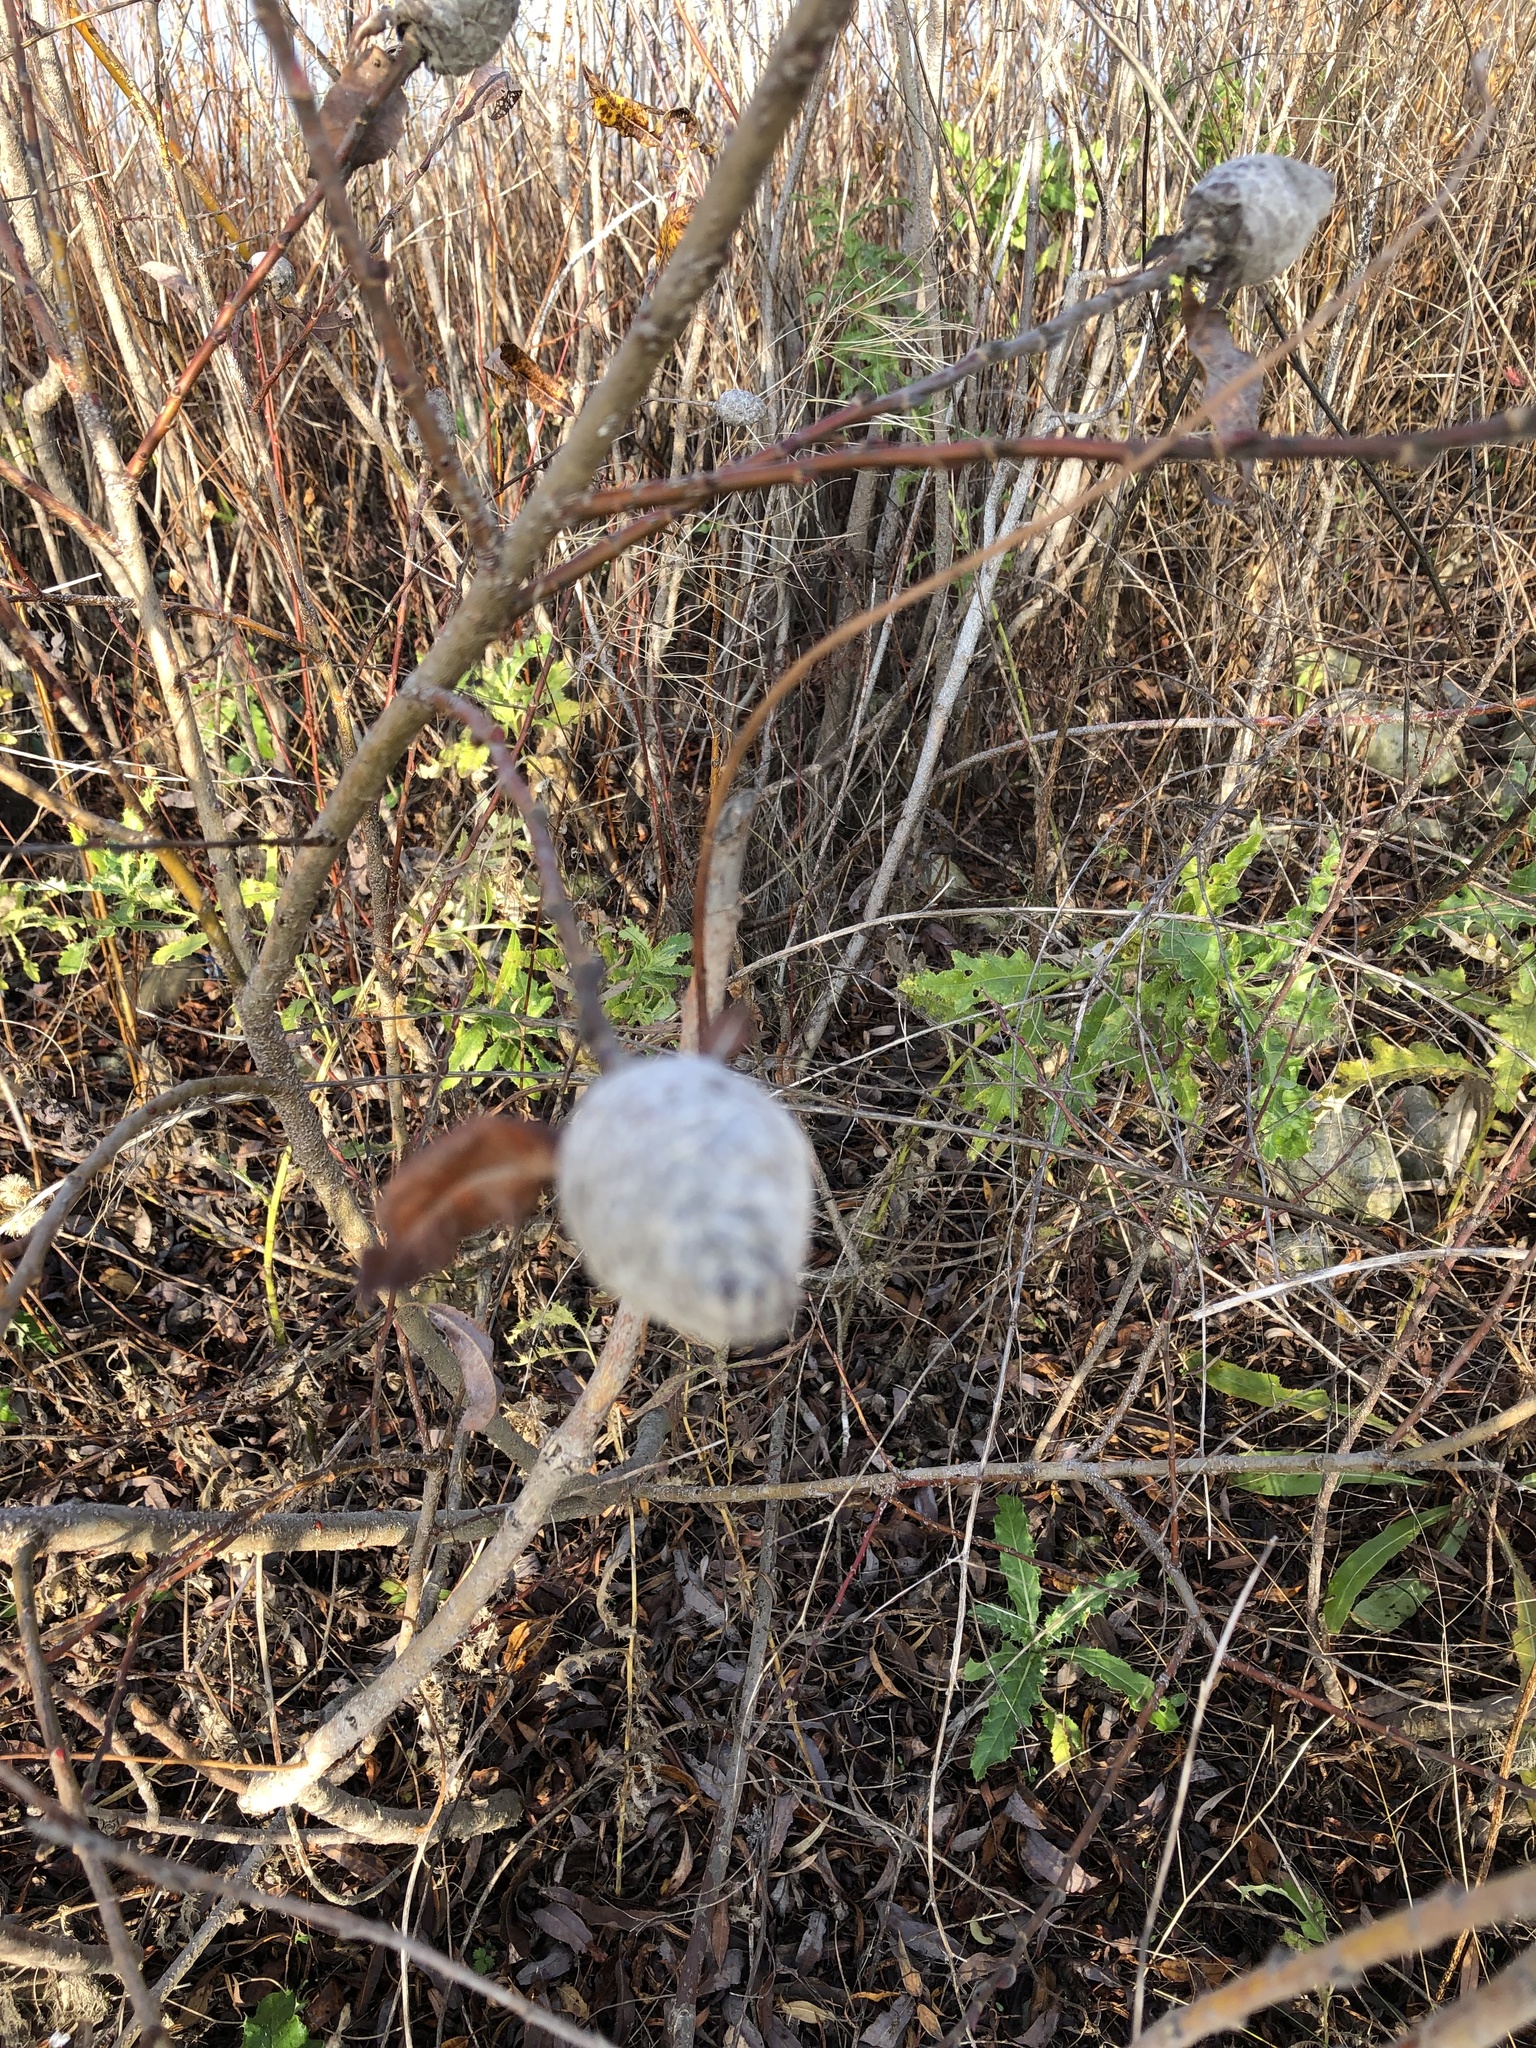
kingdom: Animalia
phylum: Arthropoda
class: Insecta
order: Diptera
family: Cecidomyiidae
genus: Rabdophaga
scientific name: Rabdophaga strobiloides
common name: Willow pinecone gall midge
